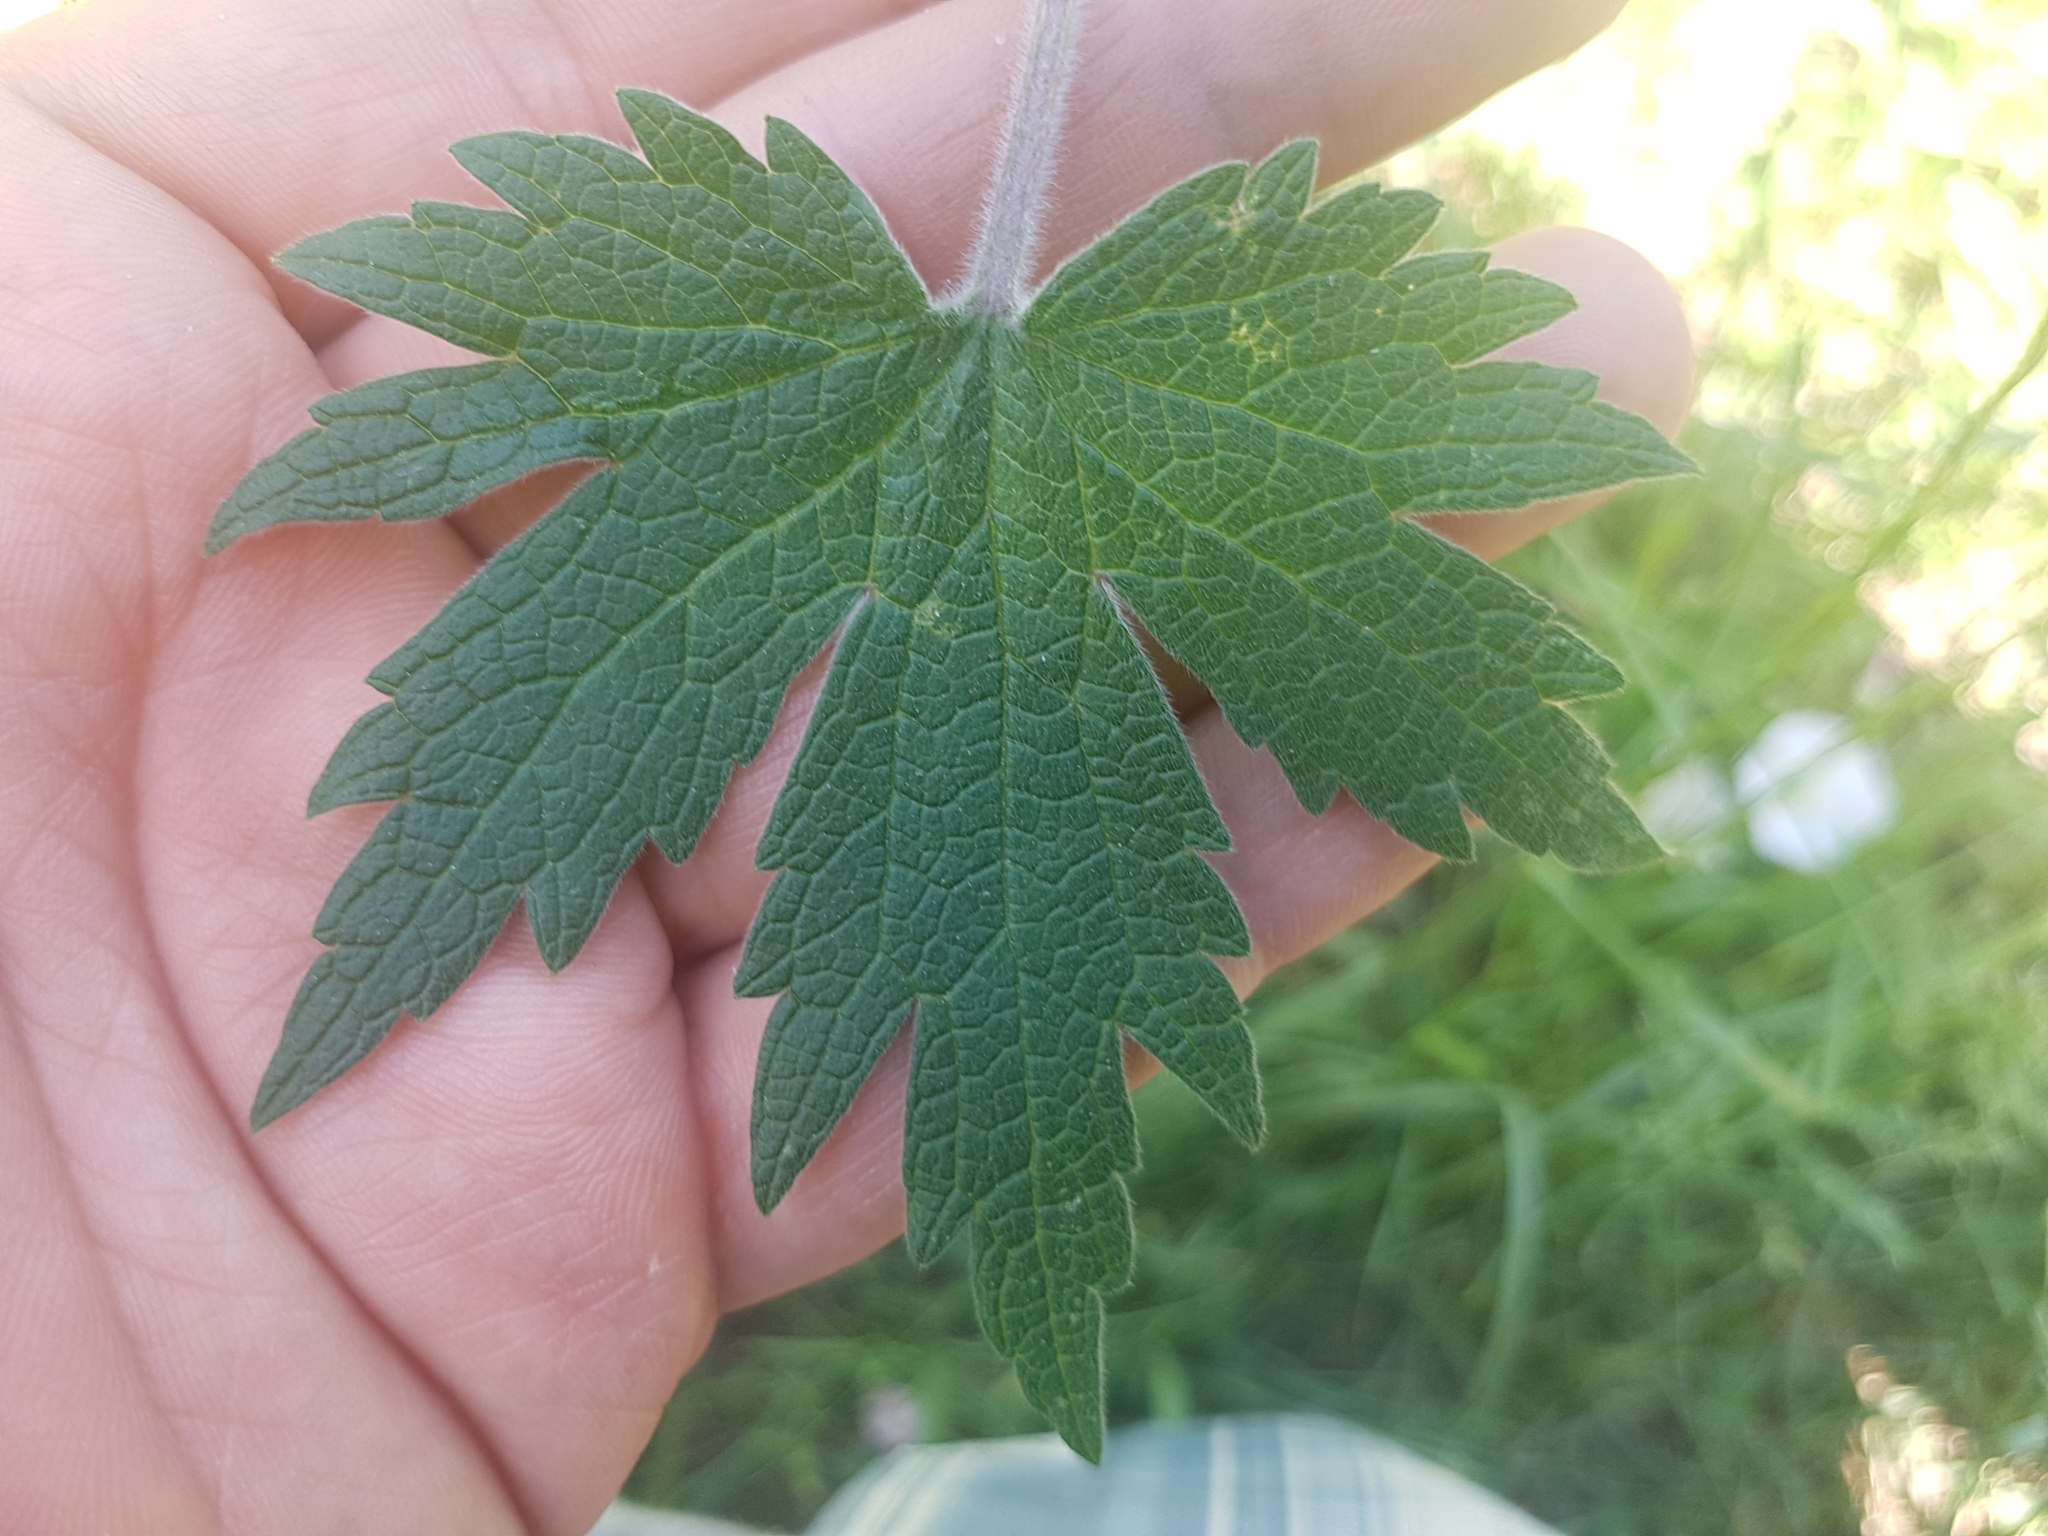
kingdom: Plantae
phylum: Tracheophyta
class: Magnoliopsida
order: Lamiales
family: Lamiaceae
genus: Leonurus
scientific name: Leonurus quinquelobatus
